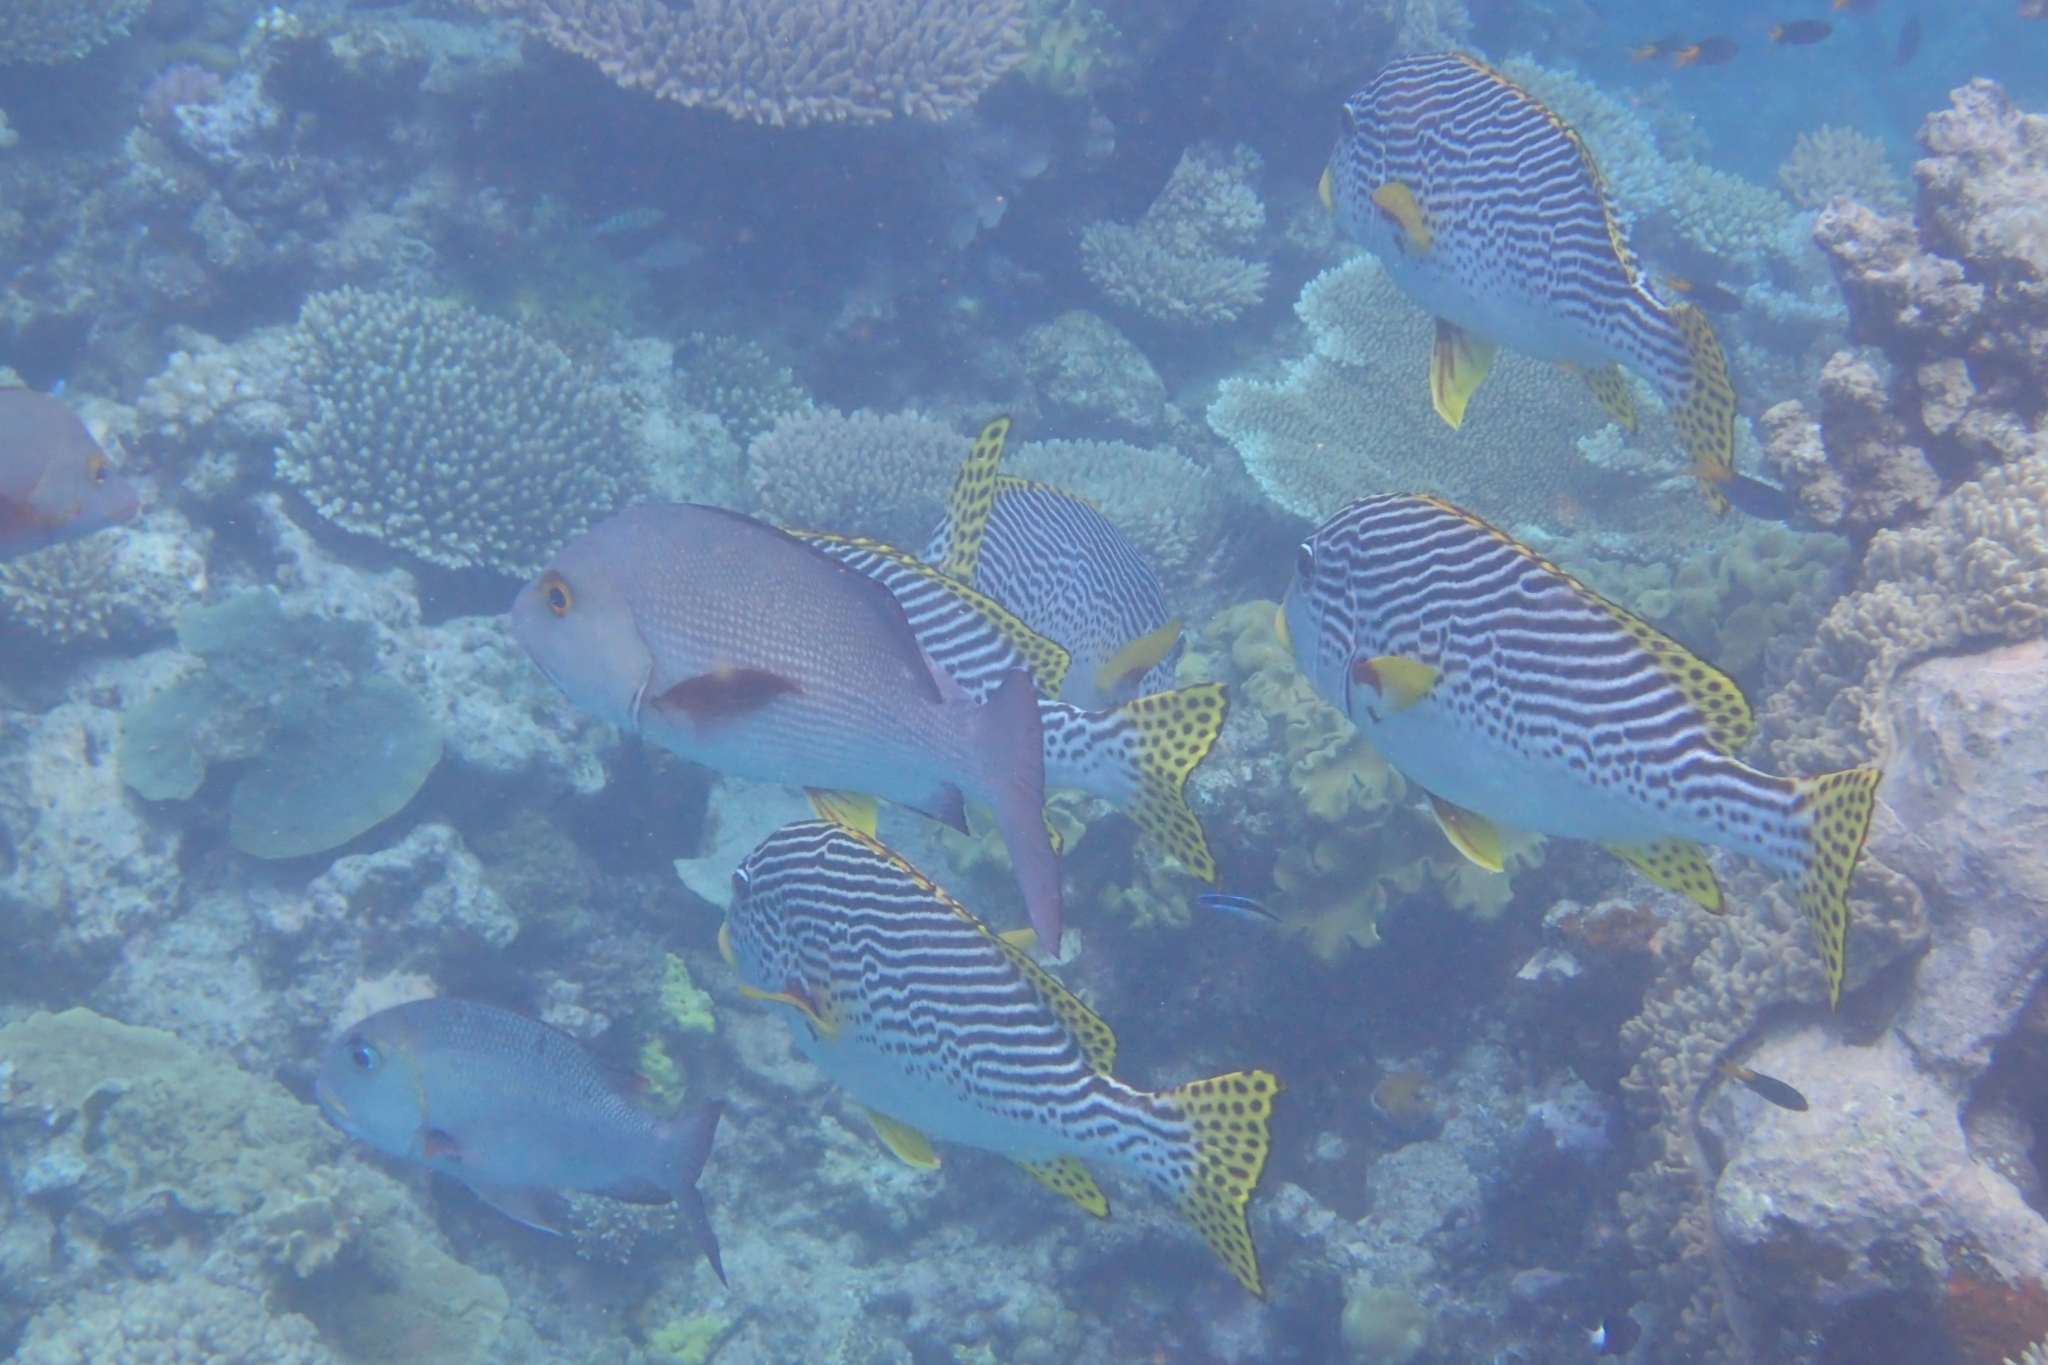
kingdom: Animalia
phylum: Chordata
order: Perciformes
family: Haemulidae
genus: Plectorhinchus
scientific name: Plectorhinchus lineatus
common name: Goldman's sweetlips
